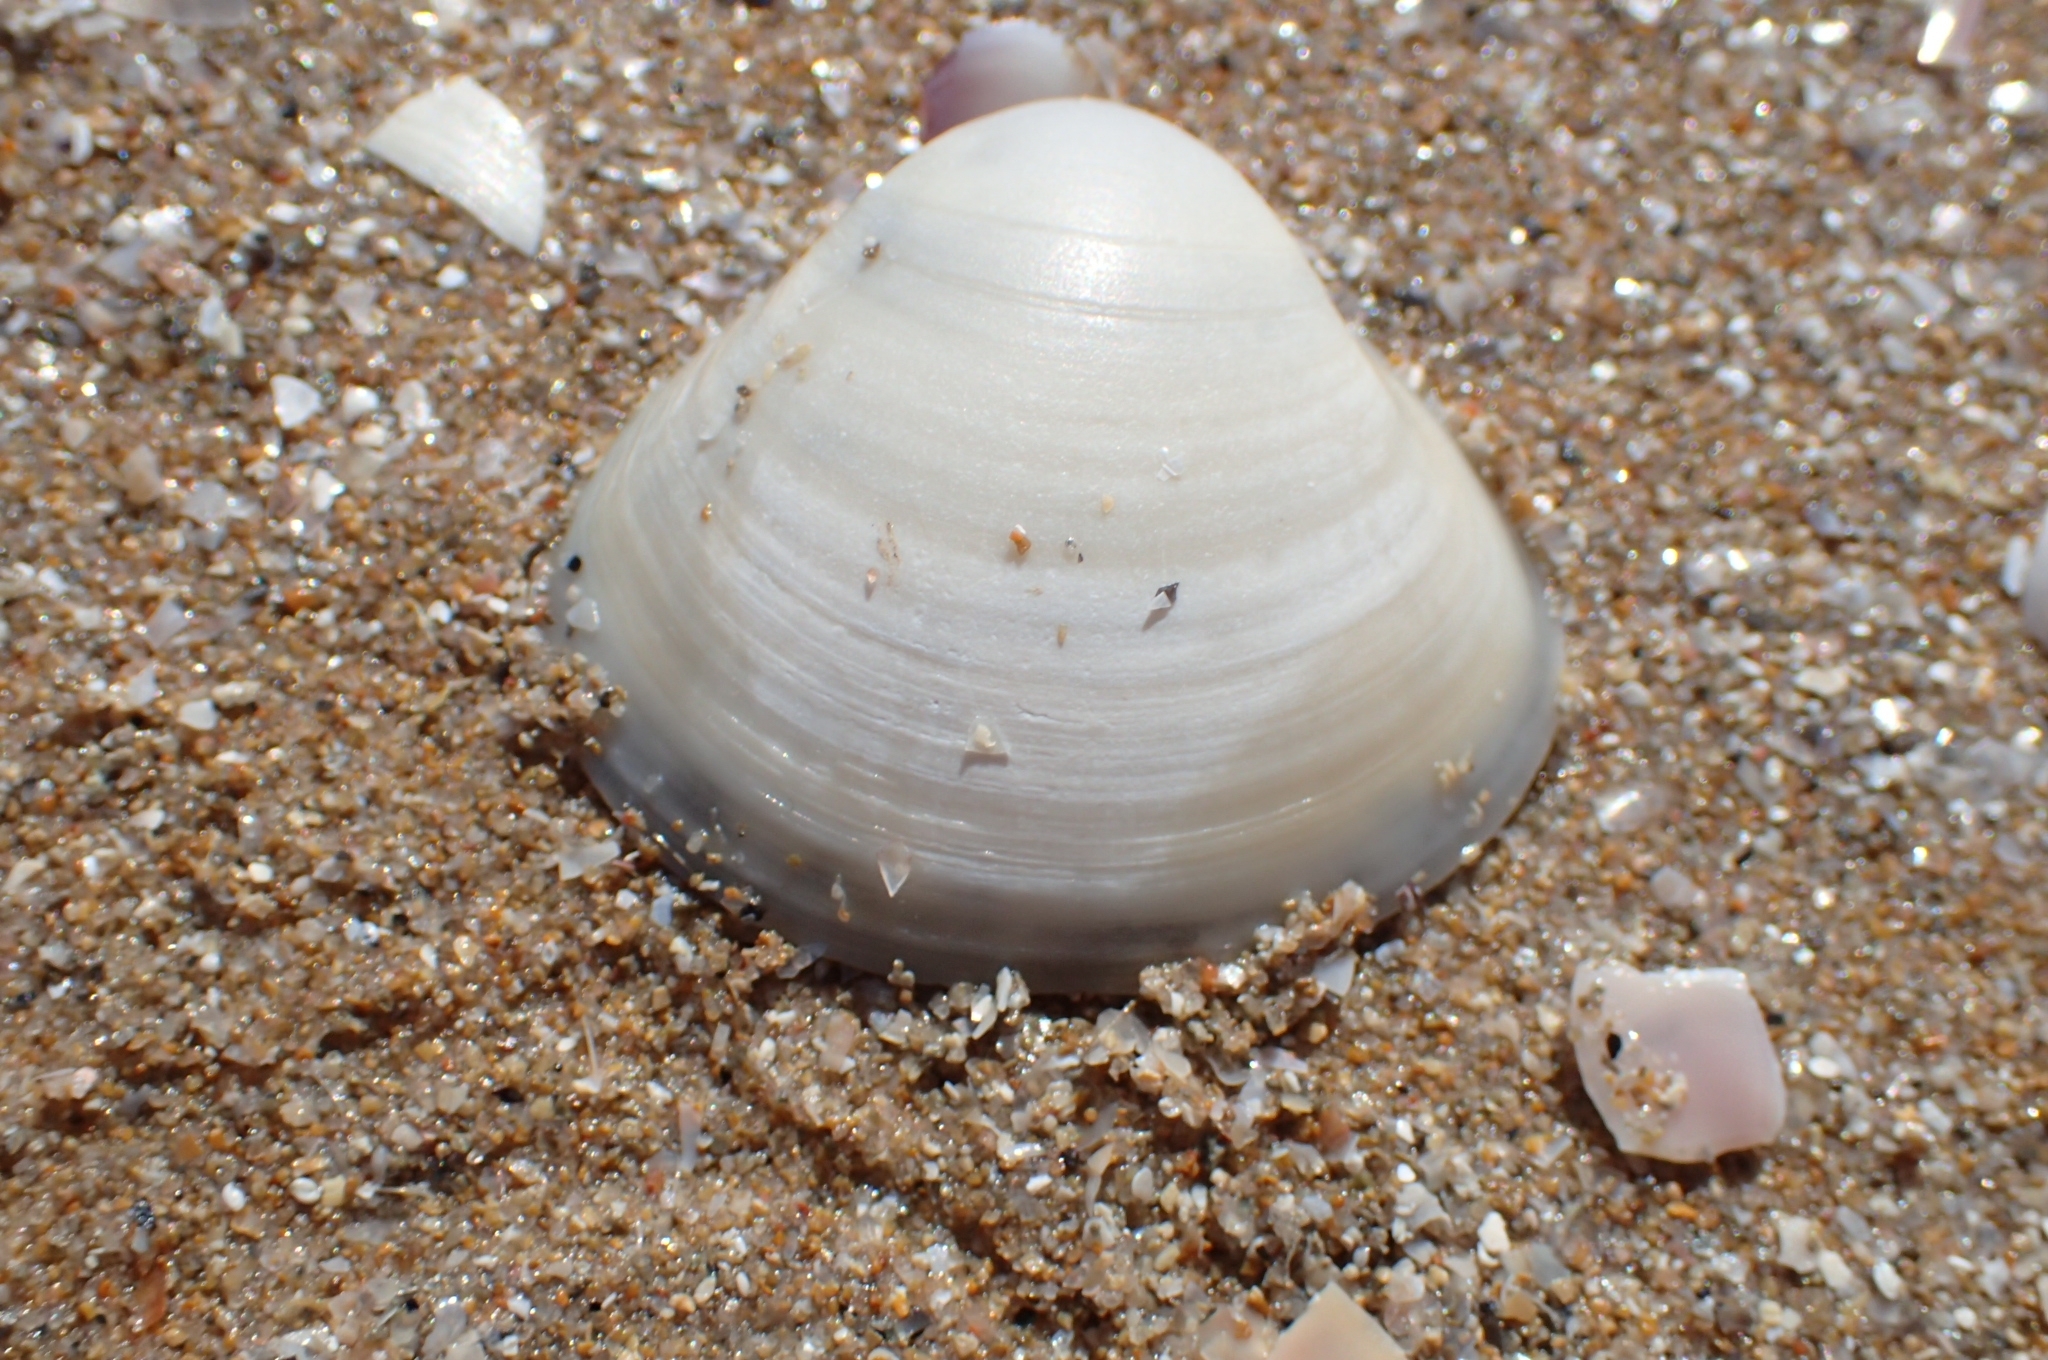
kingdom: Animalia
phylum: Mollusca
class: Bivalvia
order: Venerida
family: Mactridae
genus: Mactra
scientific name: Mactra stultorum
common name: Rayed trough shell
